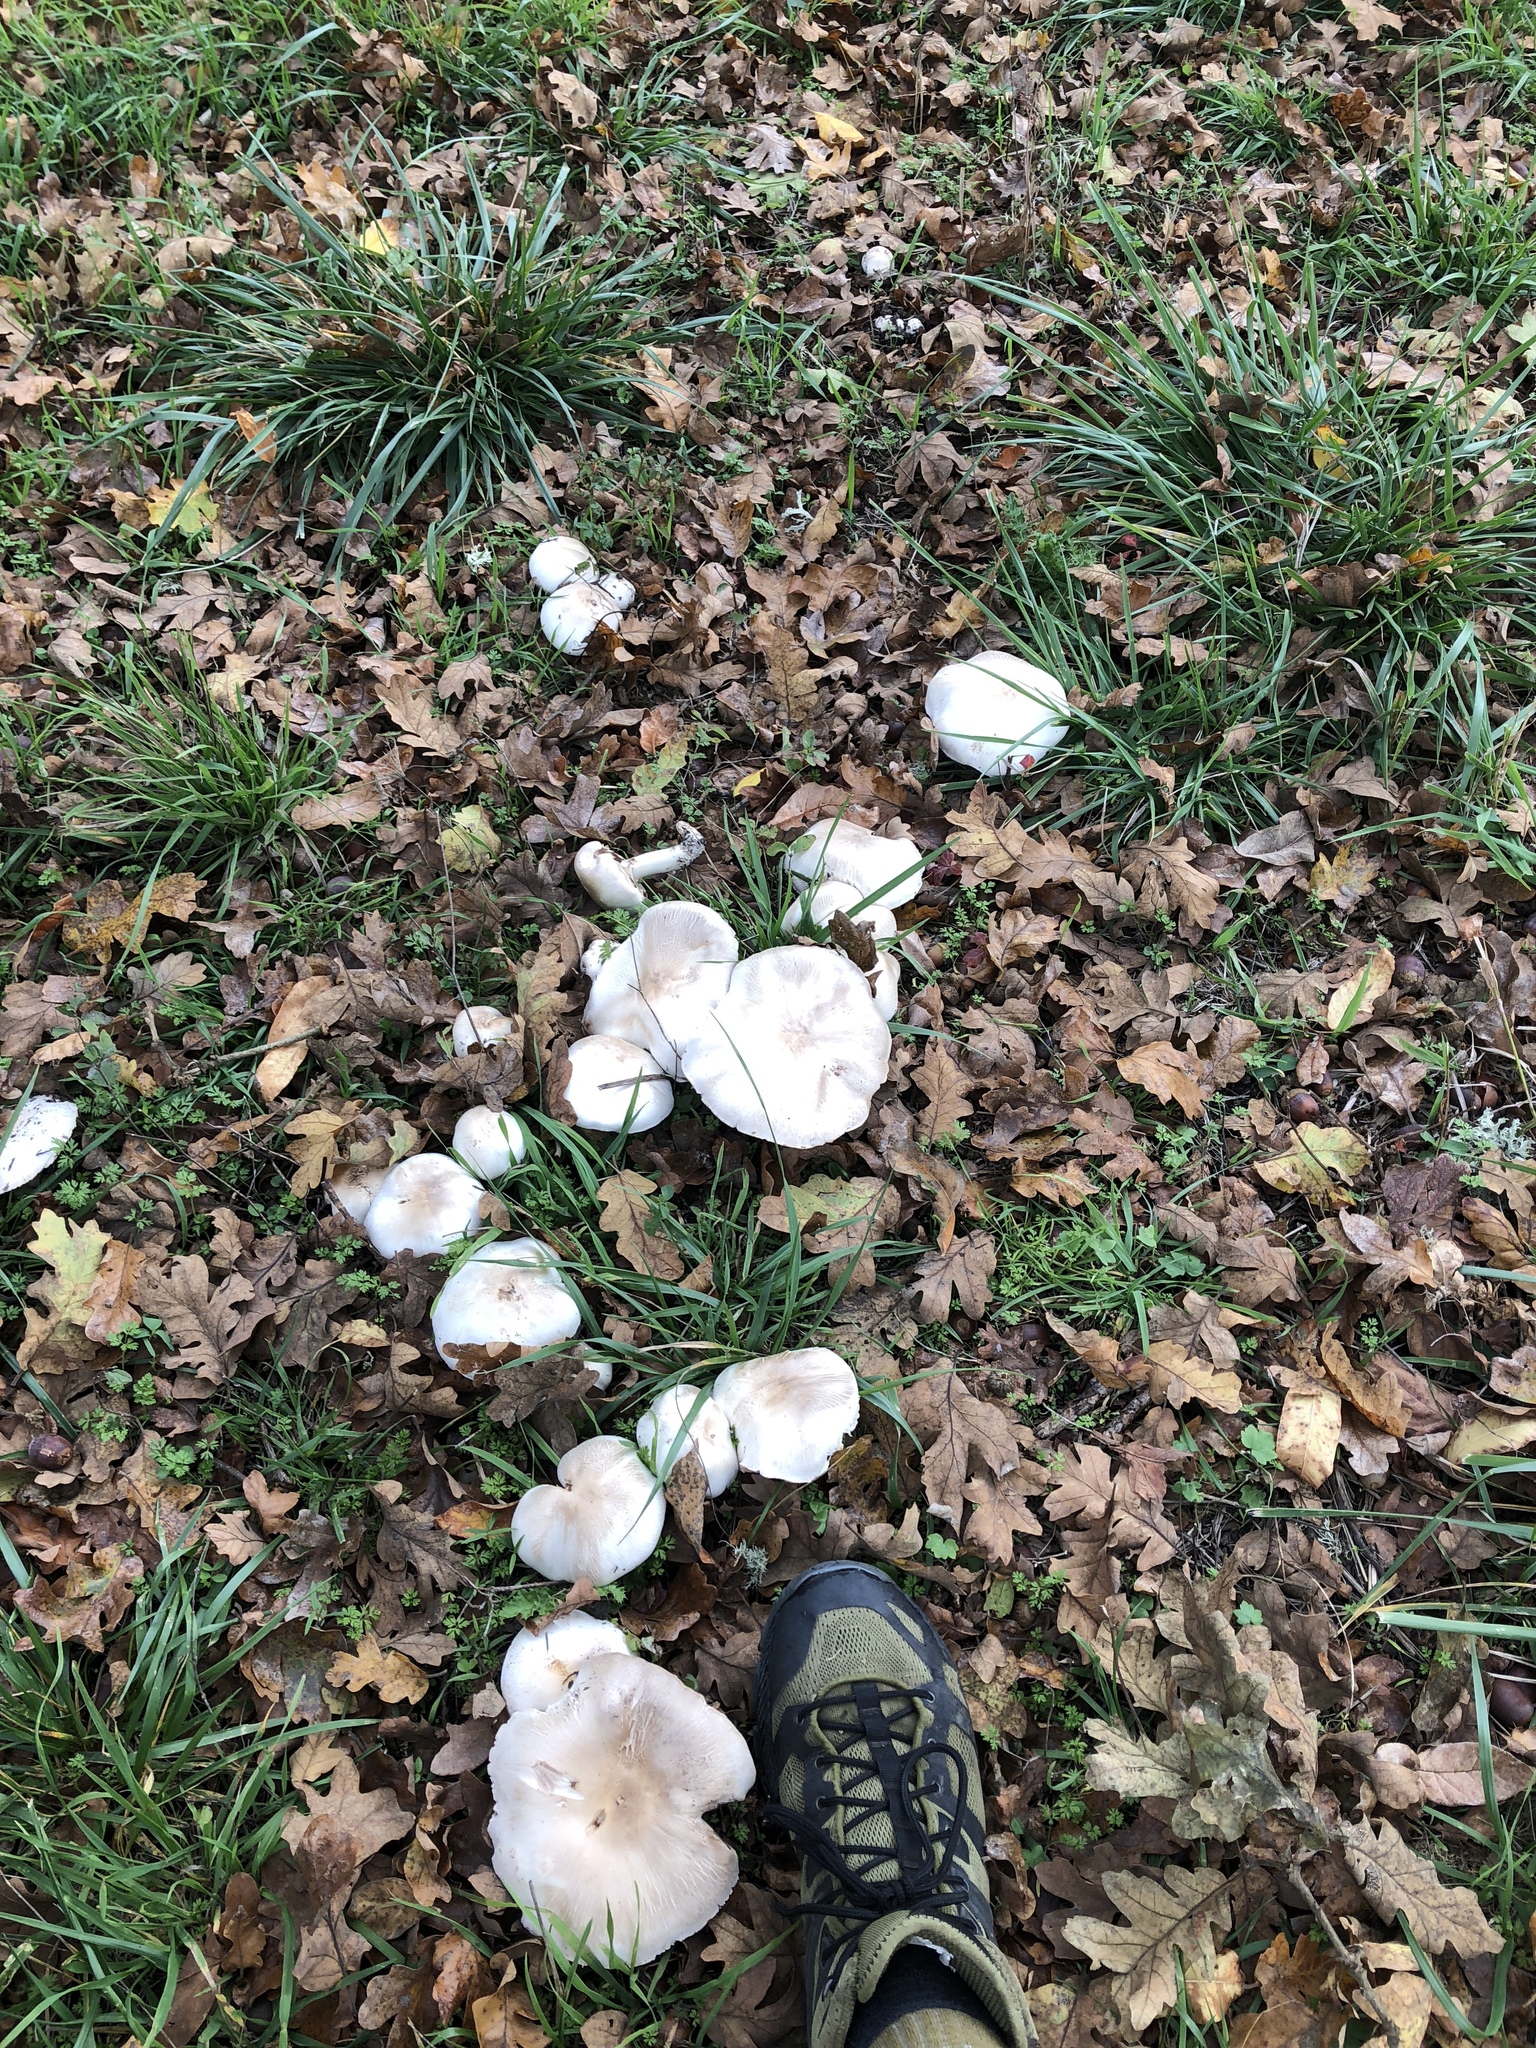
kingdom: Fungi
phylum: Basidiomycota
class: Agaricomycetes
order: Agaricales
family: Agaricaceae
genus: Agaricus
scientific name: Agaricus xanthodermus
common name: Yellow stainer
